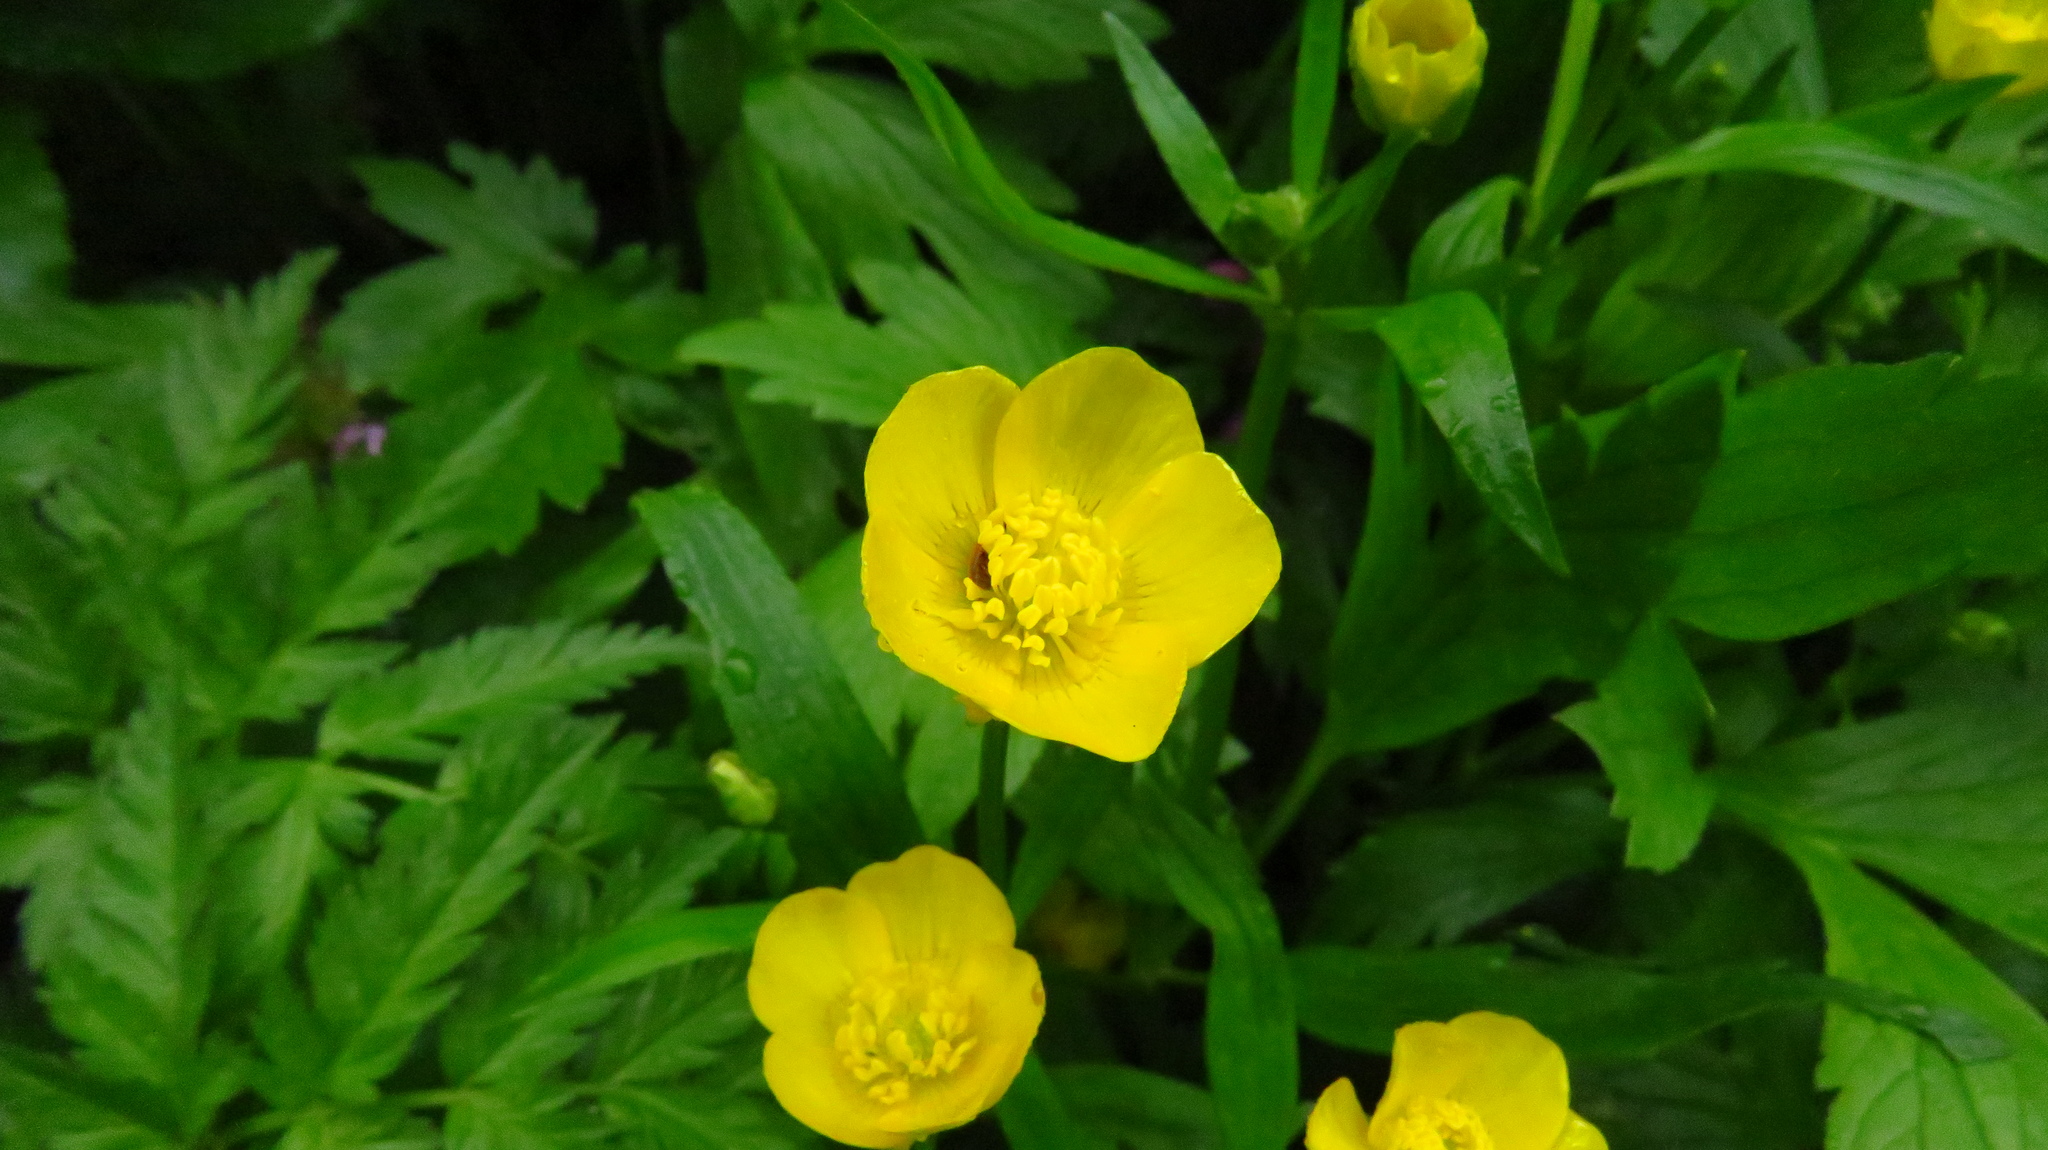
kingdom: Plantae
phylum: Tracheophyta
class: Magnoliopsida
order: Ranunculales
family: Ranunculaceae
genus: Ranunculus
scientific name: Ranunculus repens
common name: Creeping buttercup
